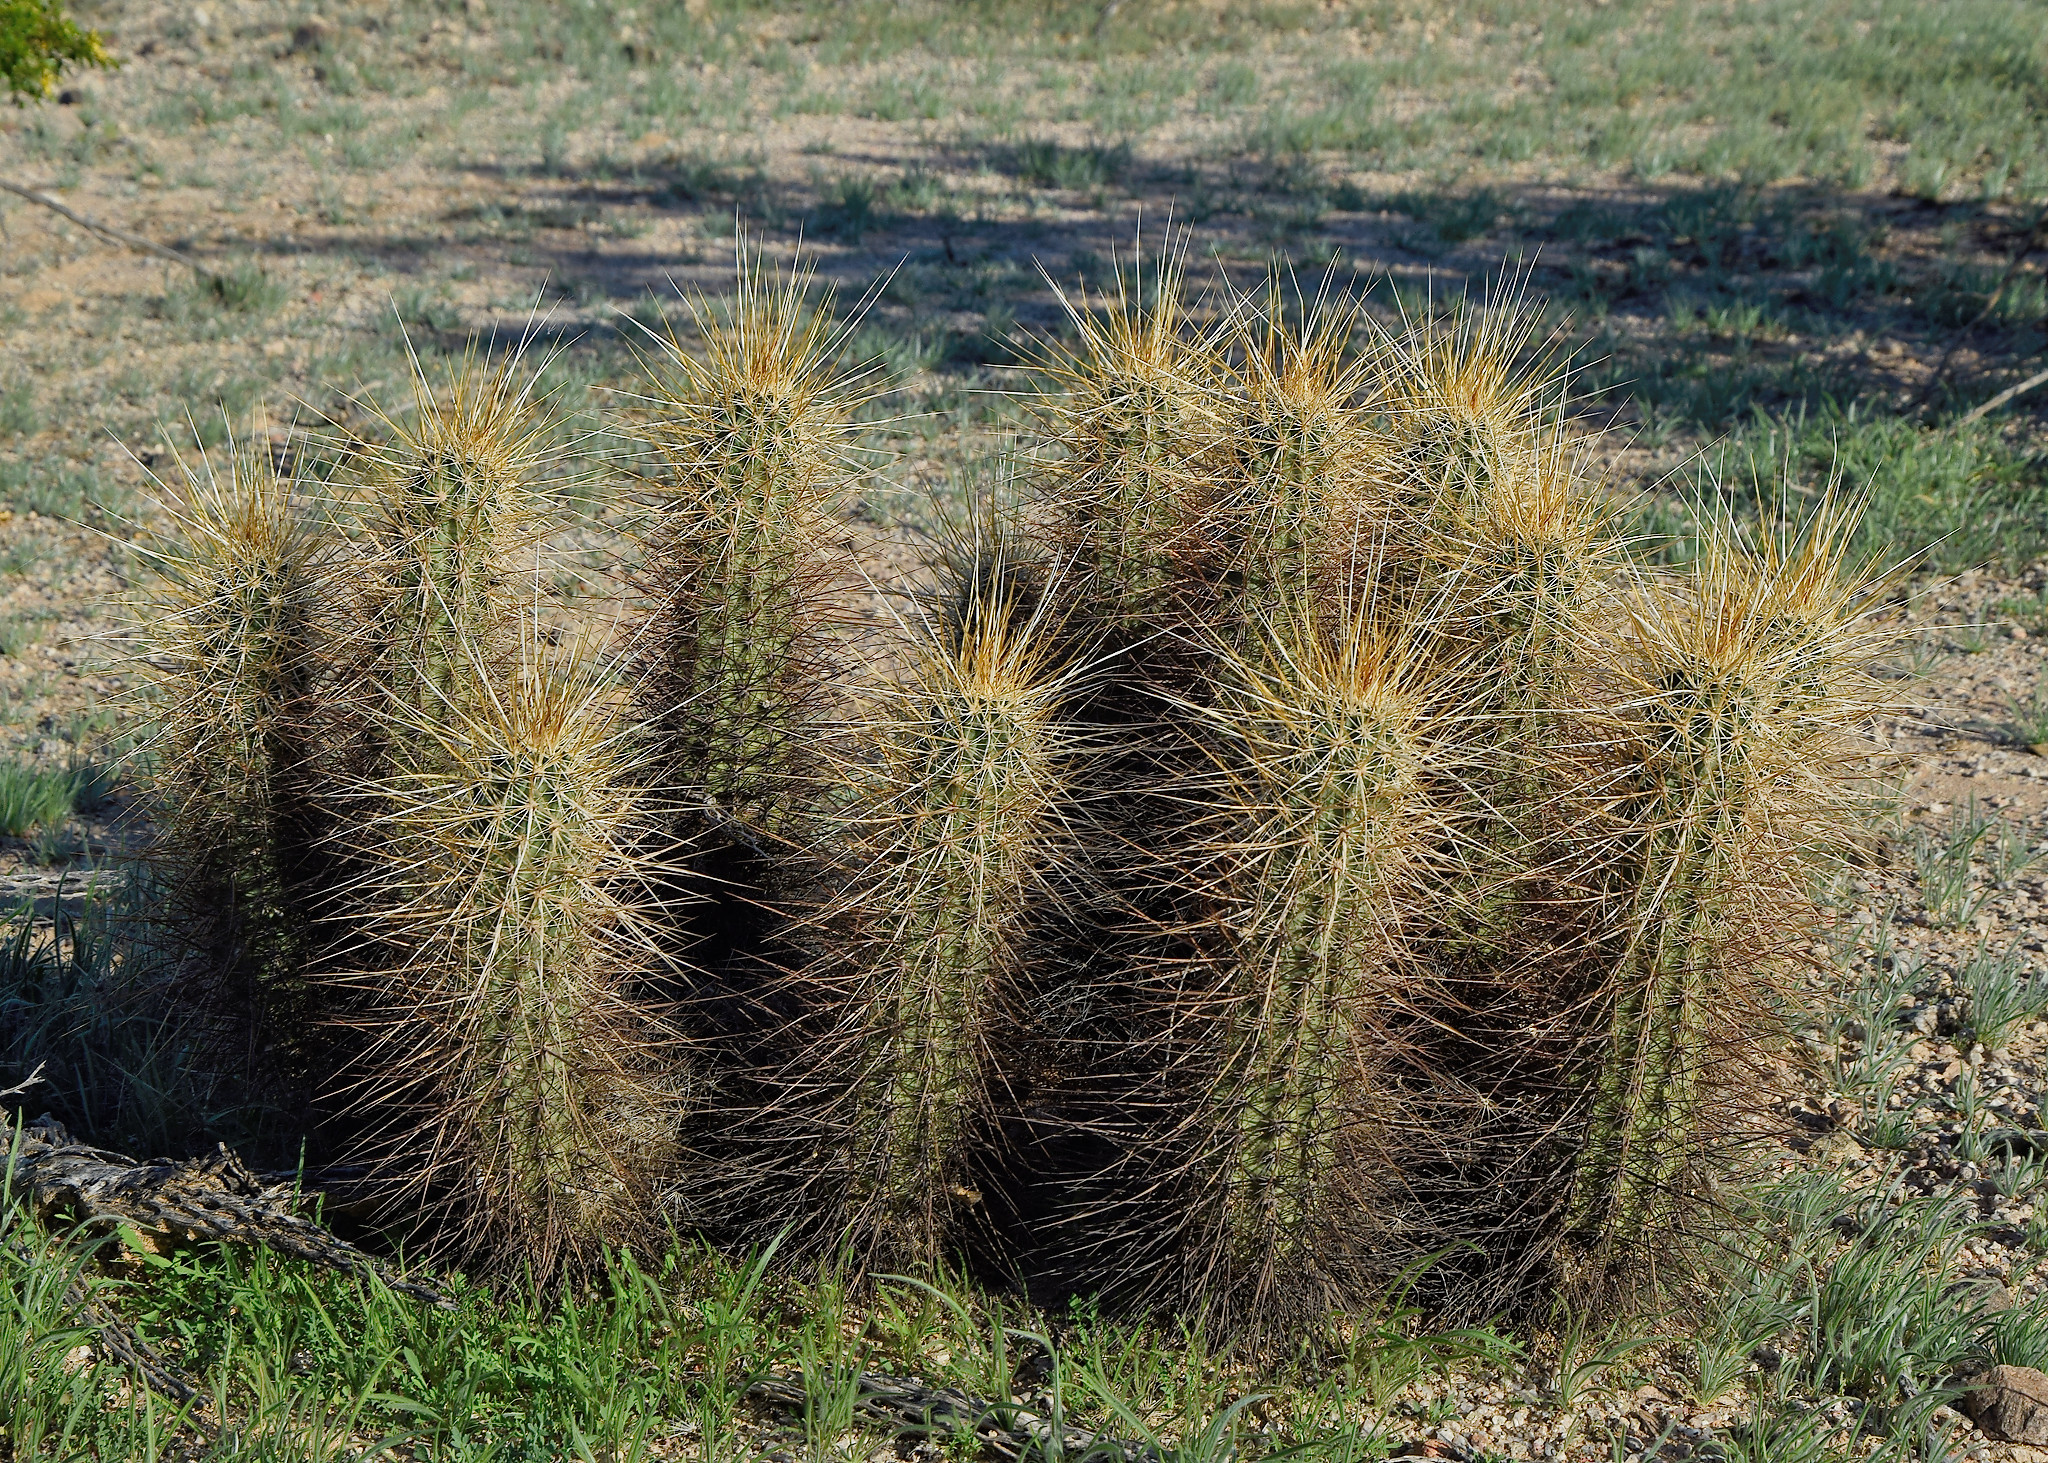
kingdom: Plantae
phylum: Tracheophyta
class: Magnoliopsida
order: Caryophyllales
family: Cactaceae
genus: Echinocereus
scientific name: Echinocereus engelmannii
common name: Engelmann's hedgehog cactus
